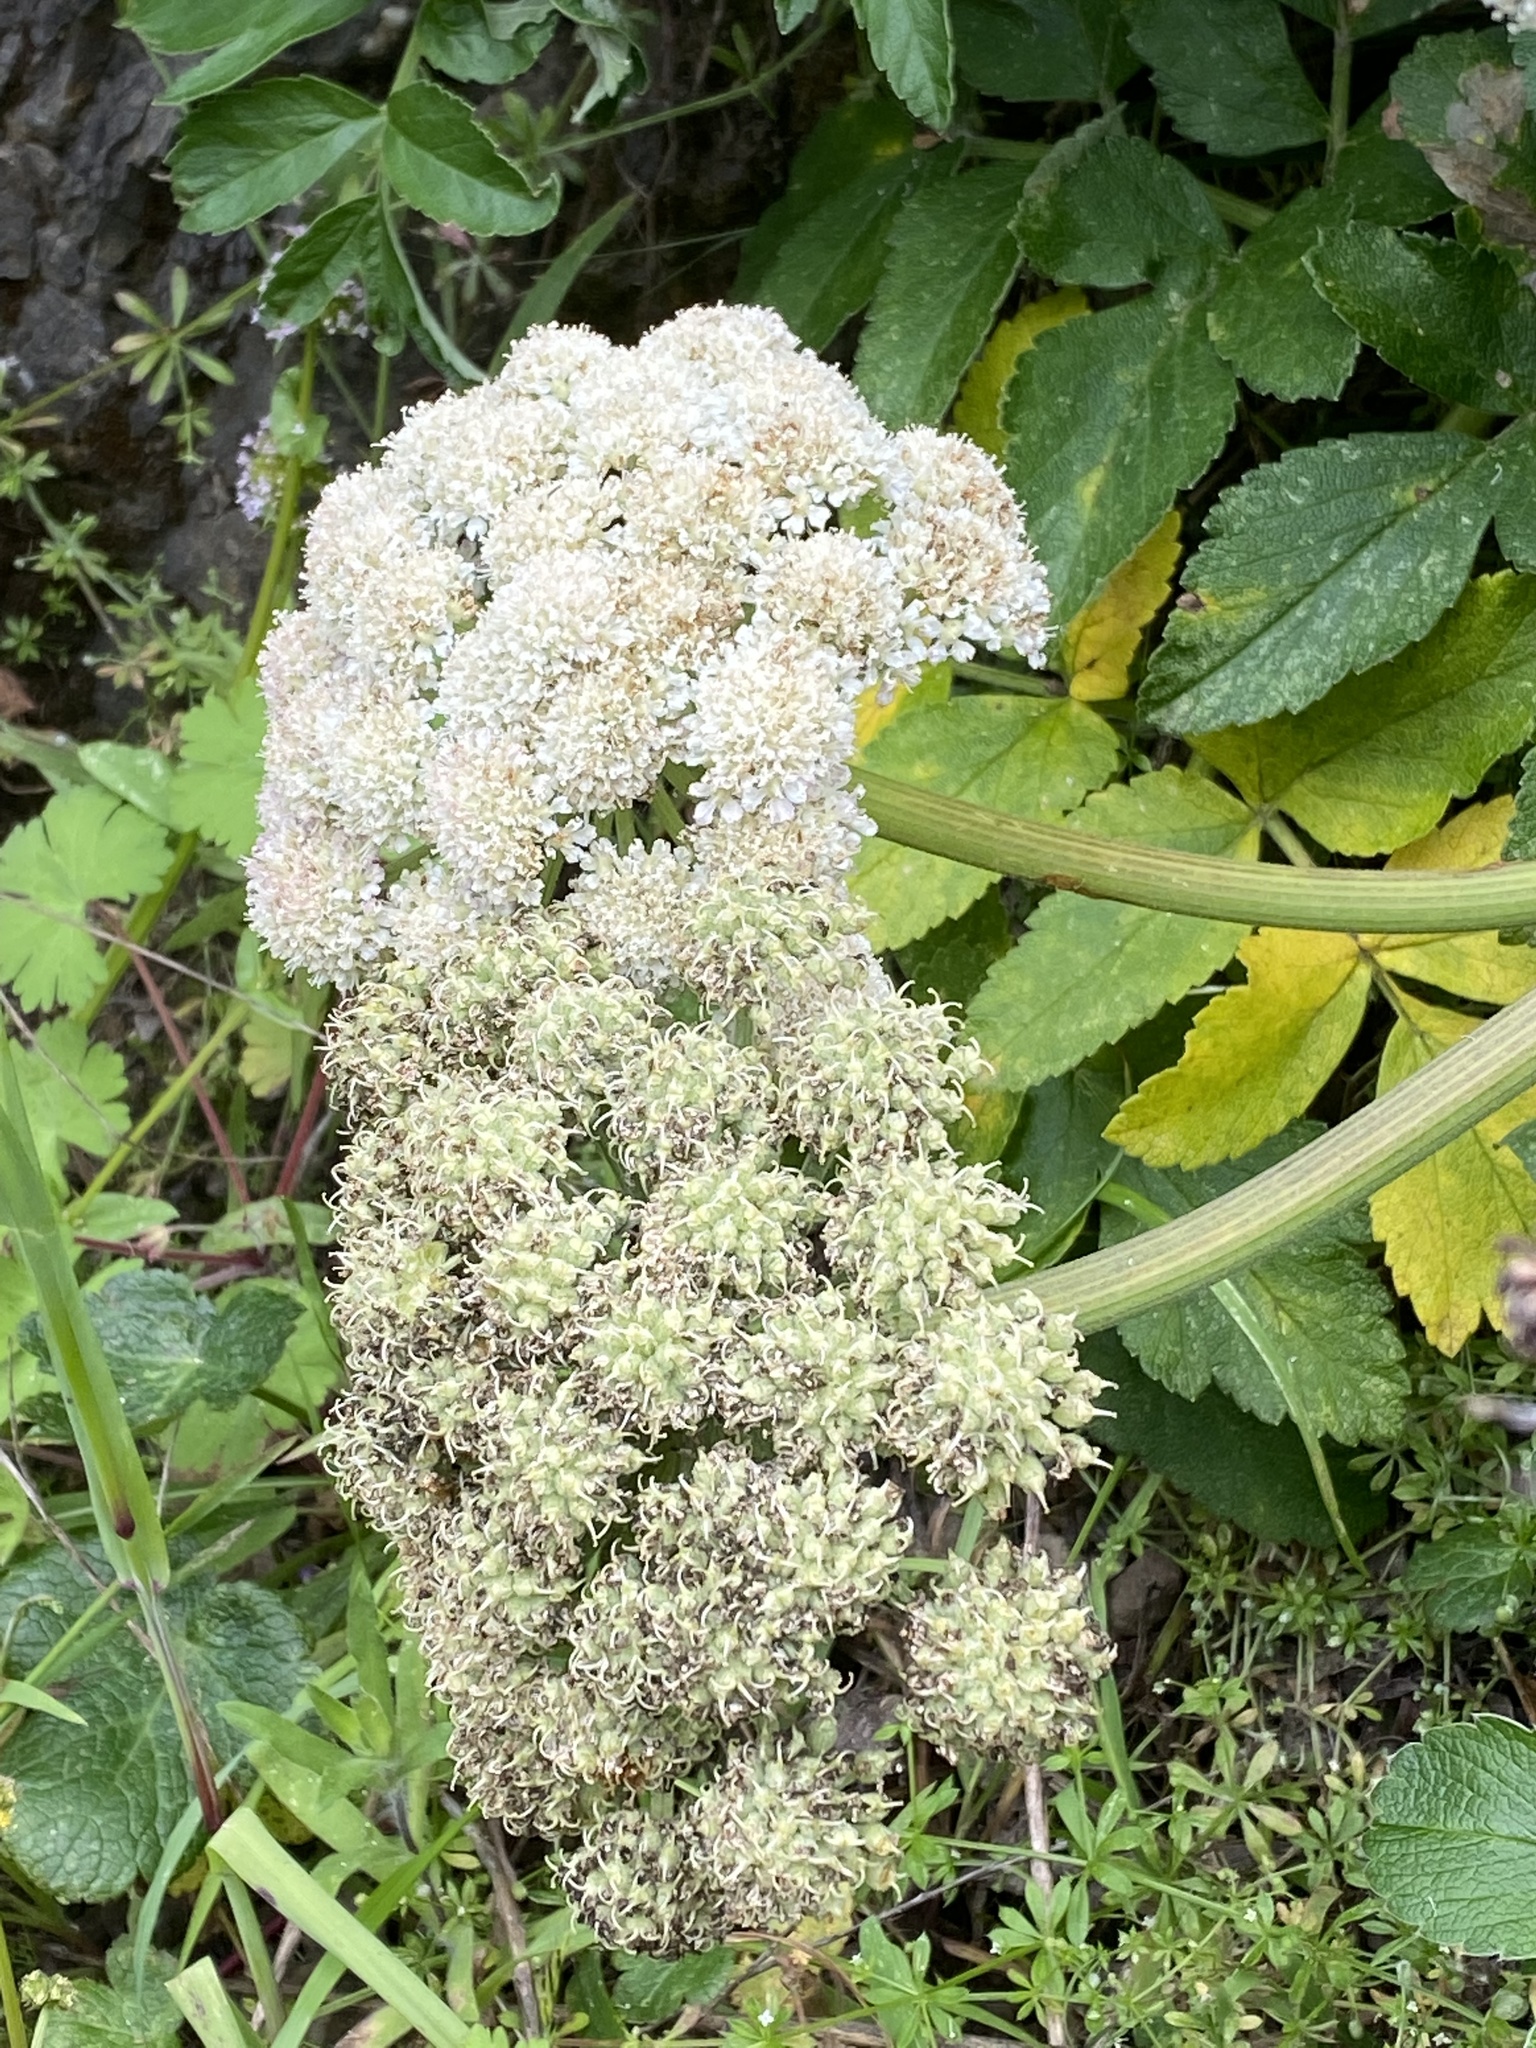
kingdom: Plantae
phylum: Tracheophyta
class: Magnoliopsida
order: Apiales
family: Apiaceae
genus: Angelica
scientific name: Angelica hendersonii
